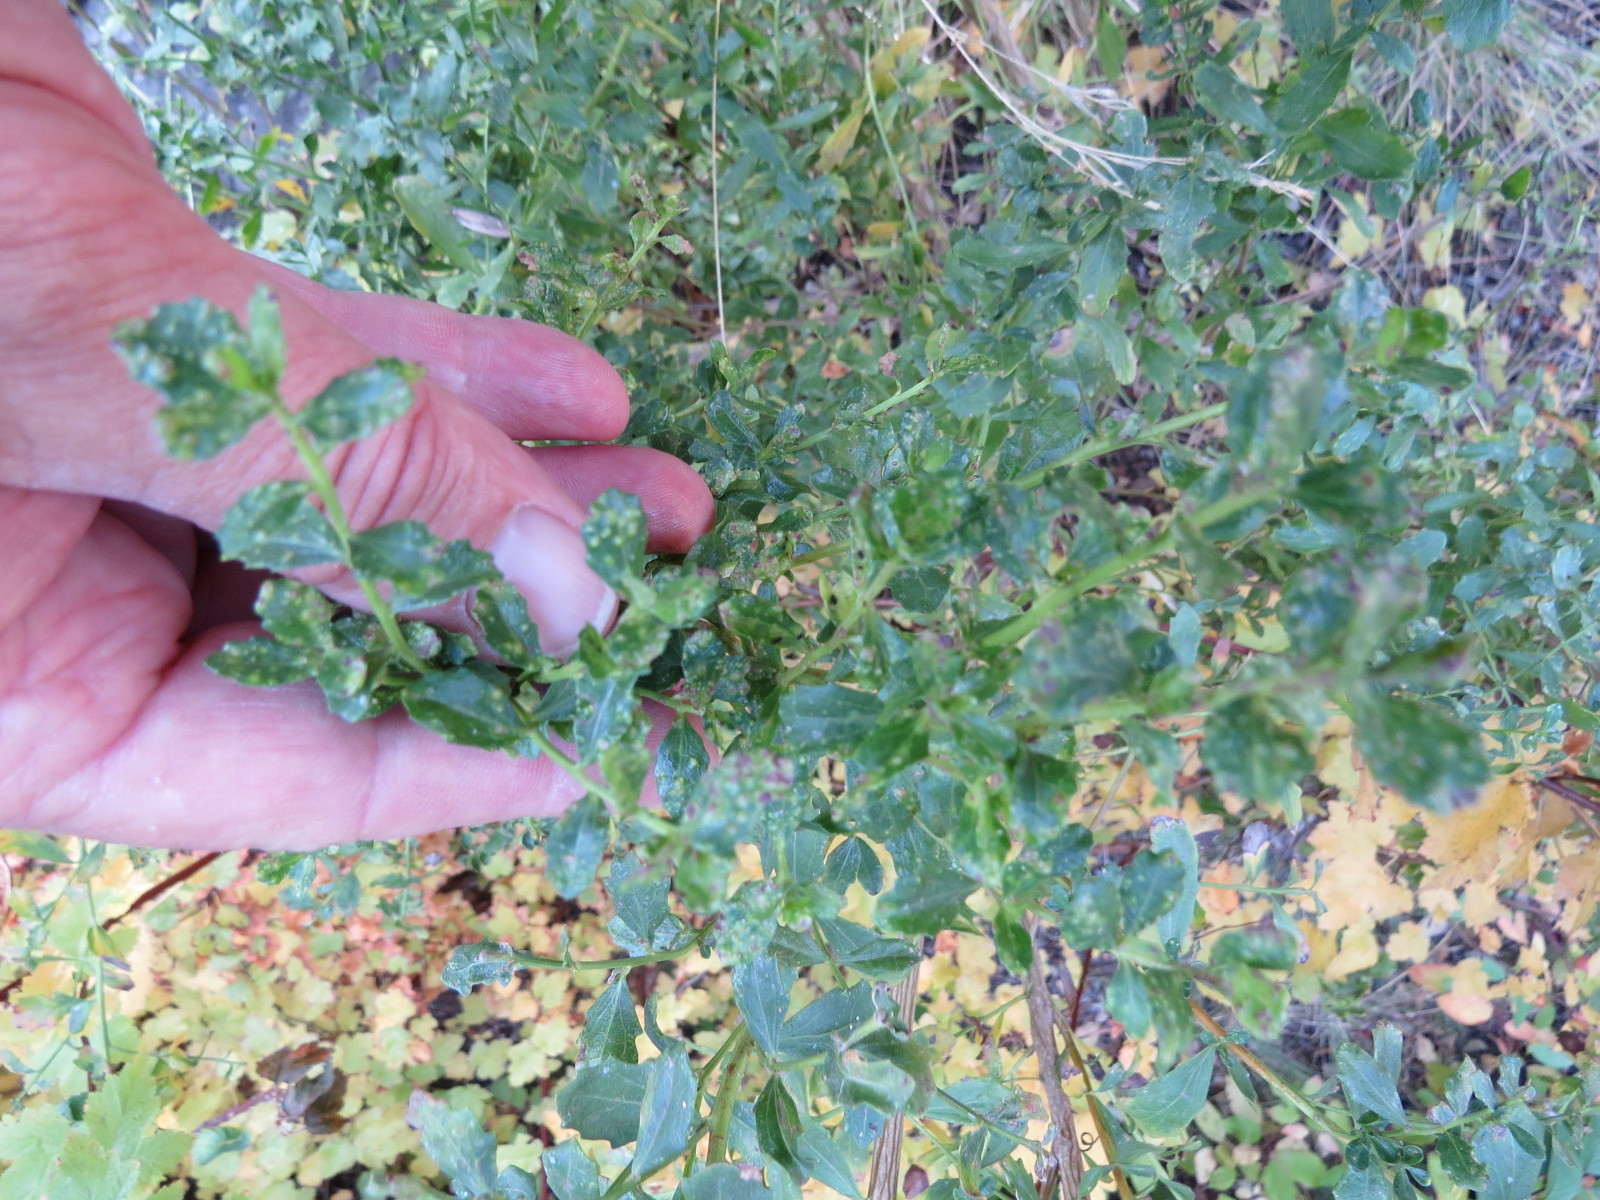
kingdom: Animalia
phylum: Arthropoda
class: Arachnida
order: Trombidiformes
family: Eriophyidae
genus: Aceria
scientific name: Aceria
